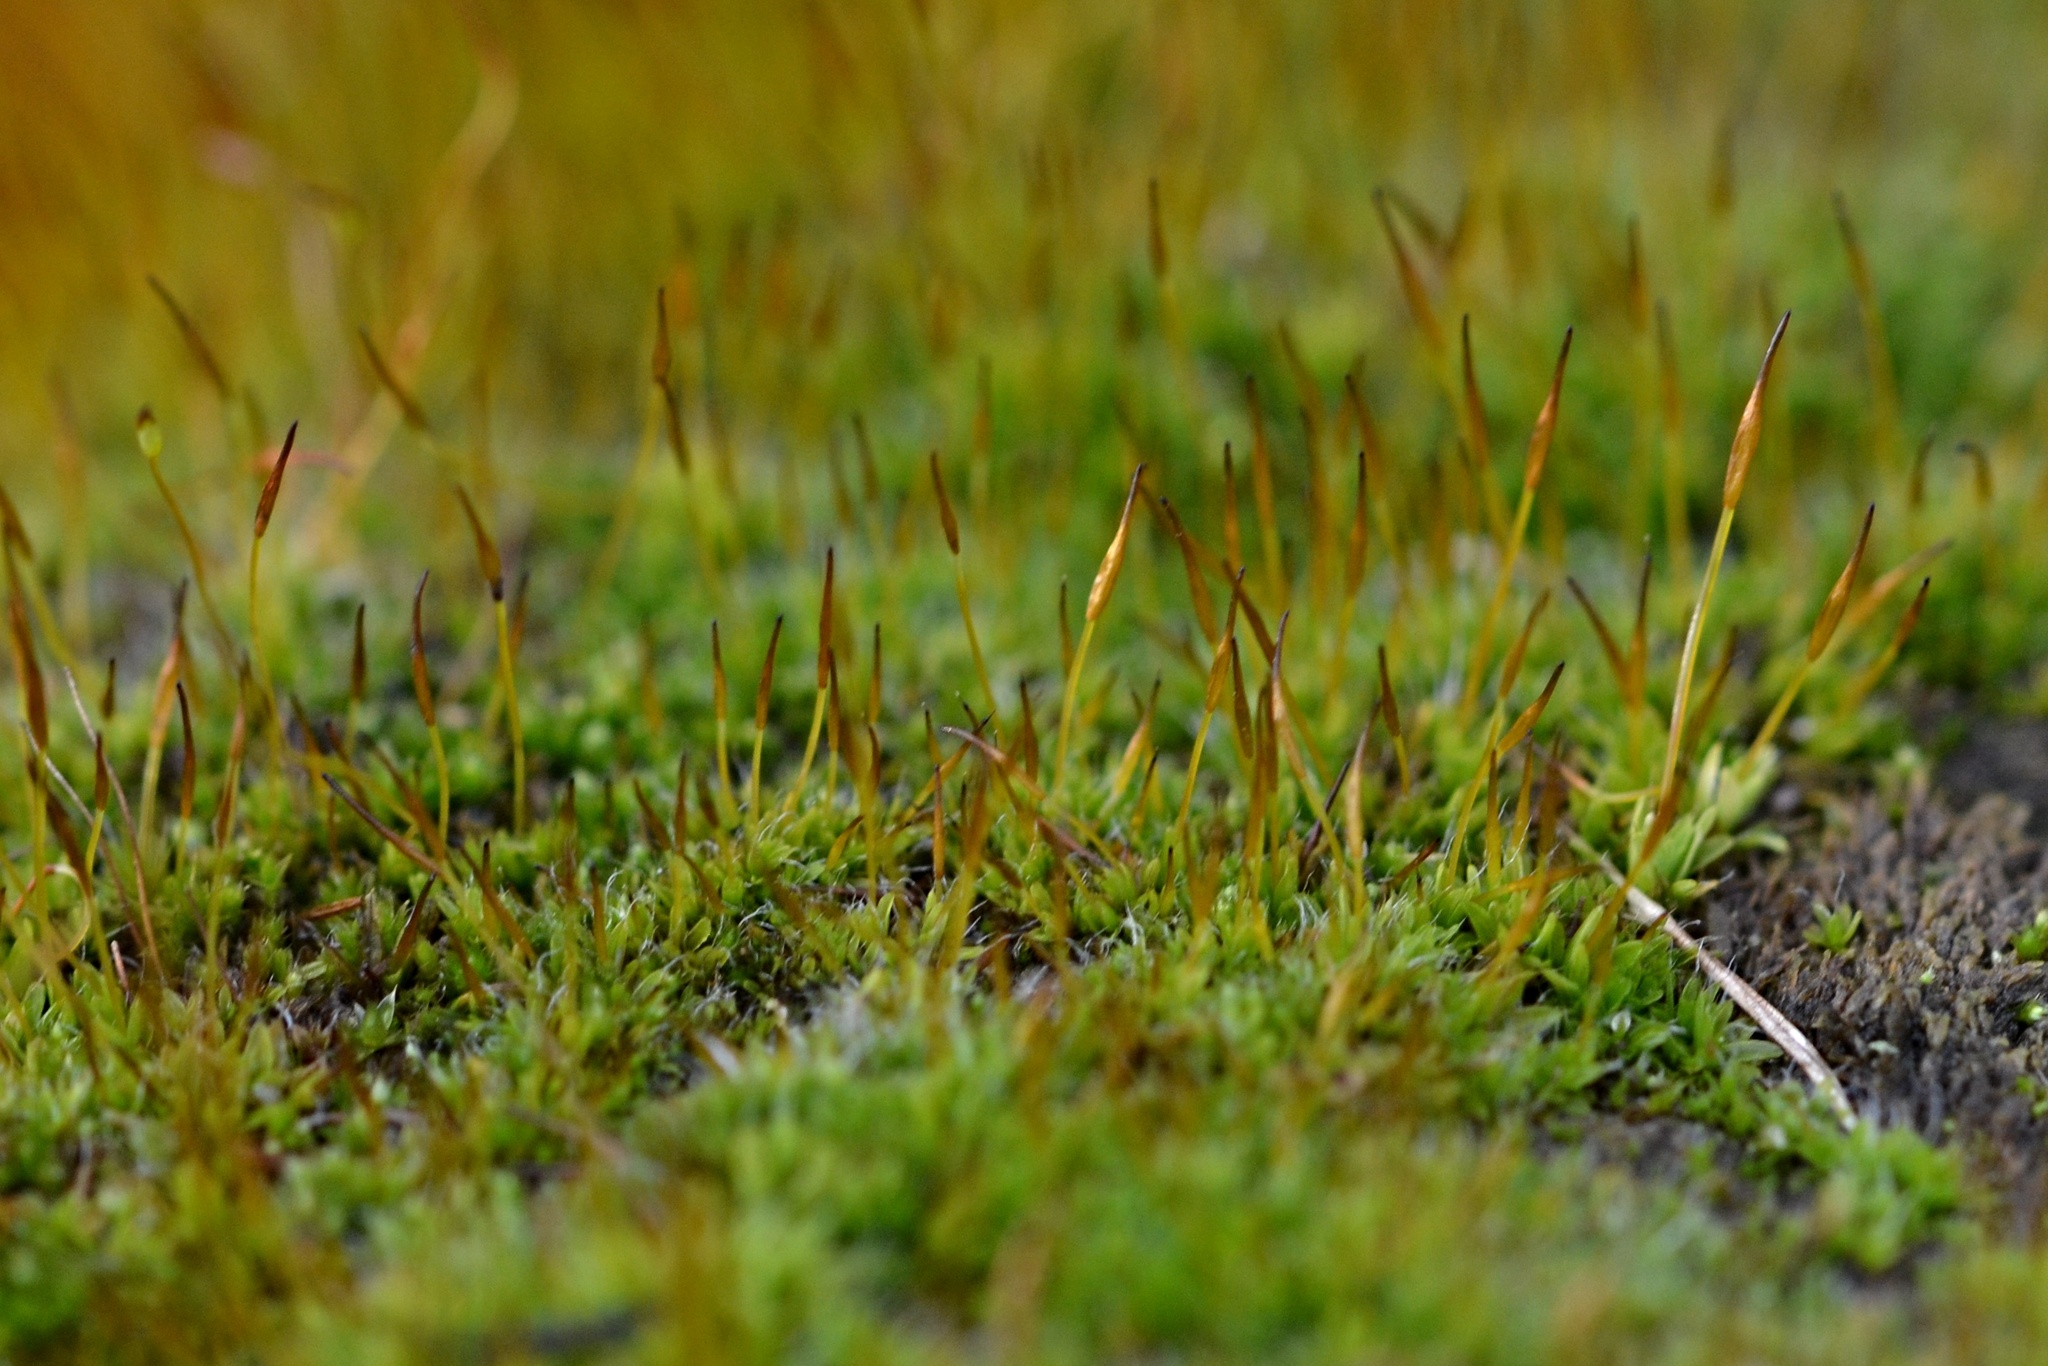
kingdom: Plantae
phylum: Bryophyta
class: Bryopsida
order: Pottiales
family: Pottiaceae
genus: Tortula
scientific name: Tortula muralis
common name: Wall screw-moss
